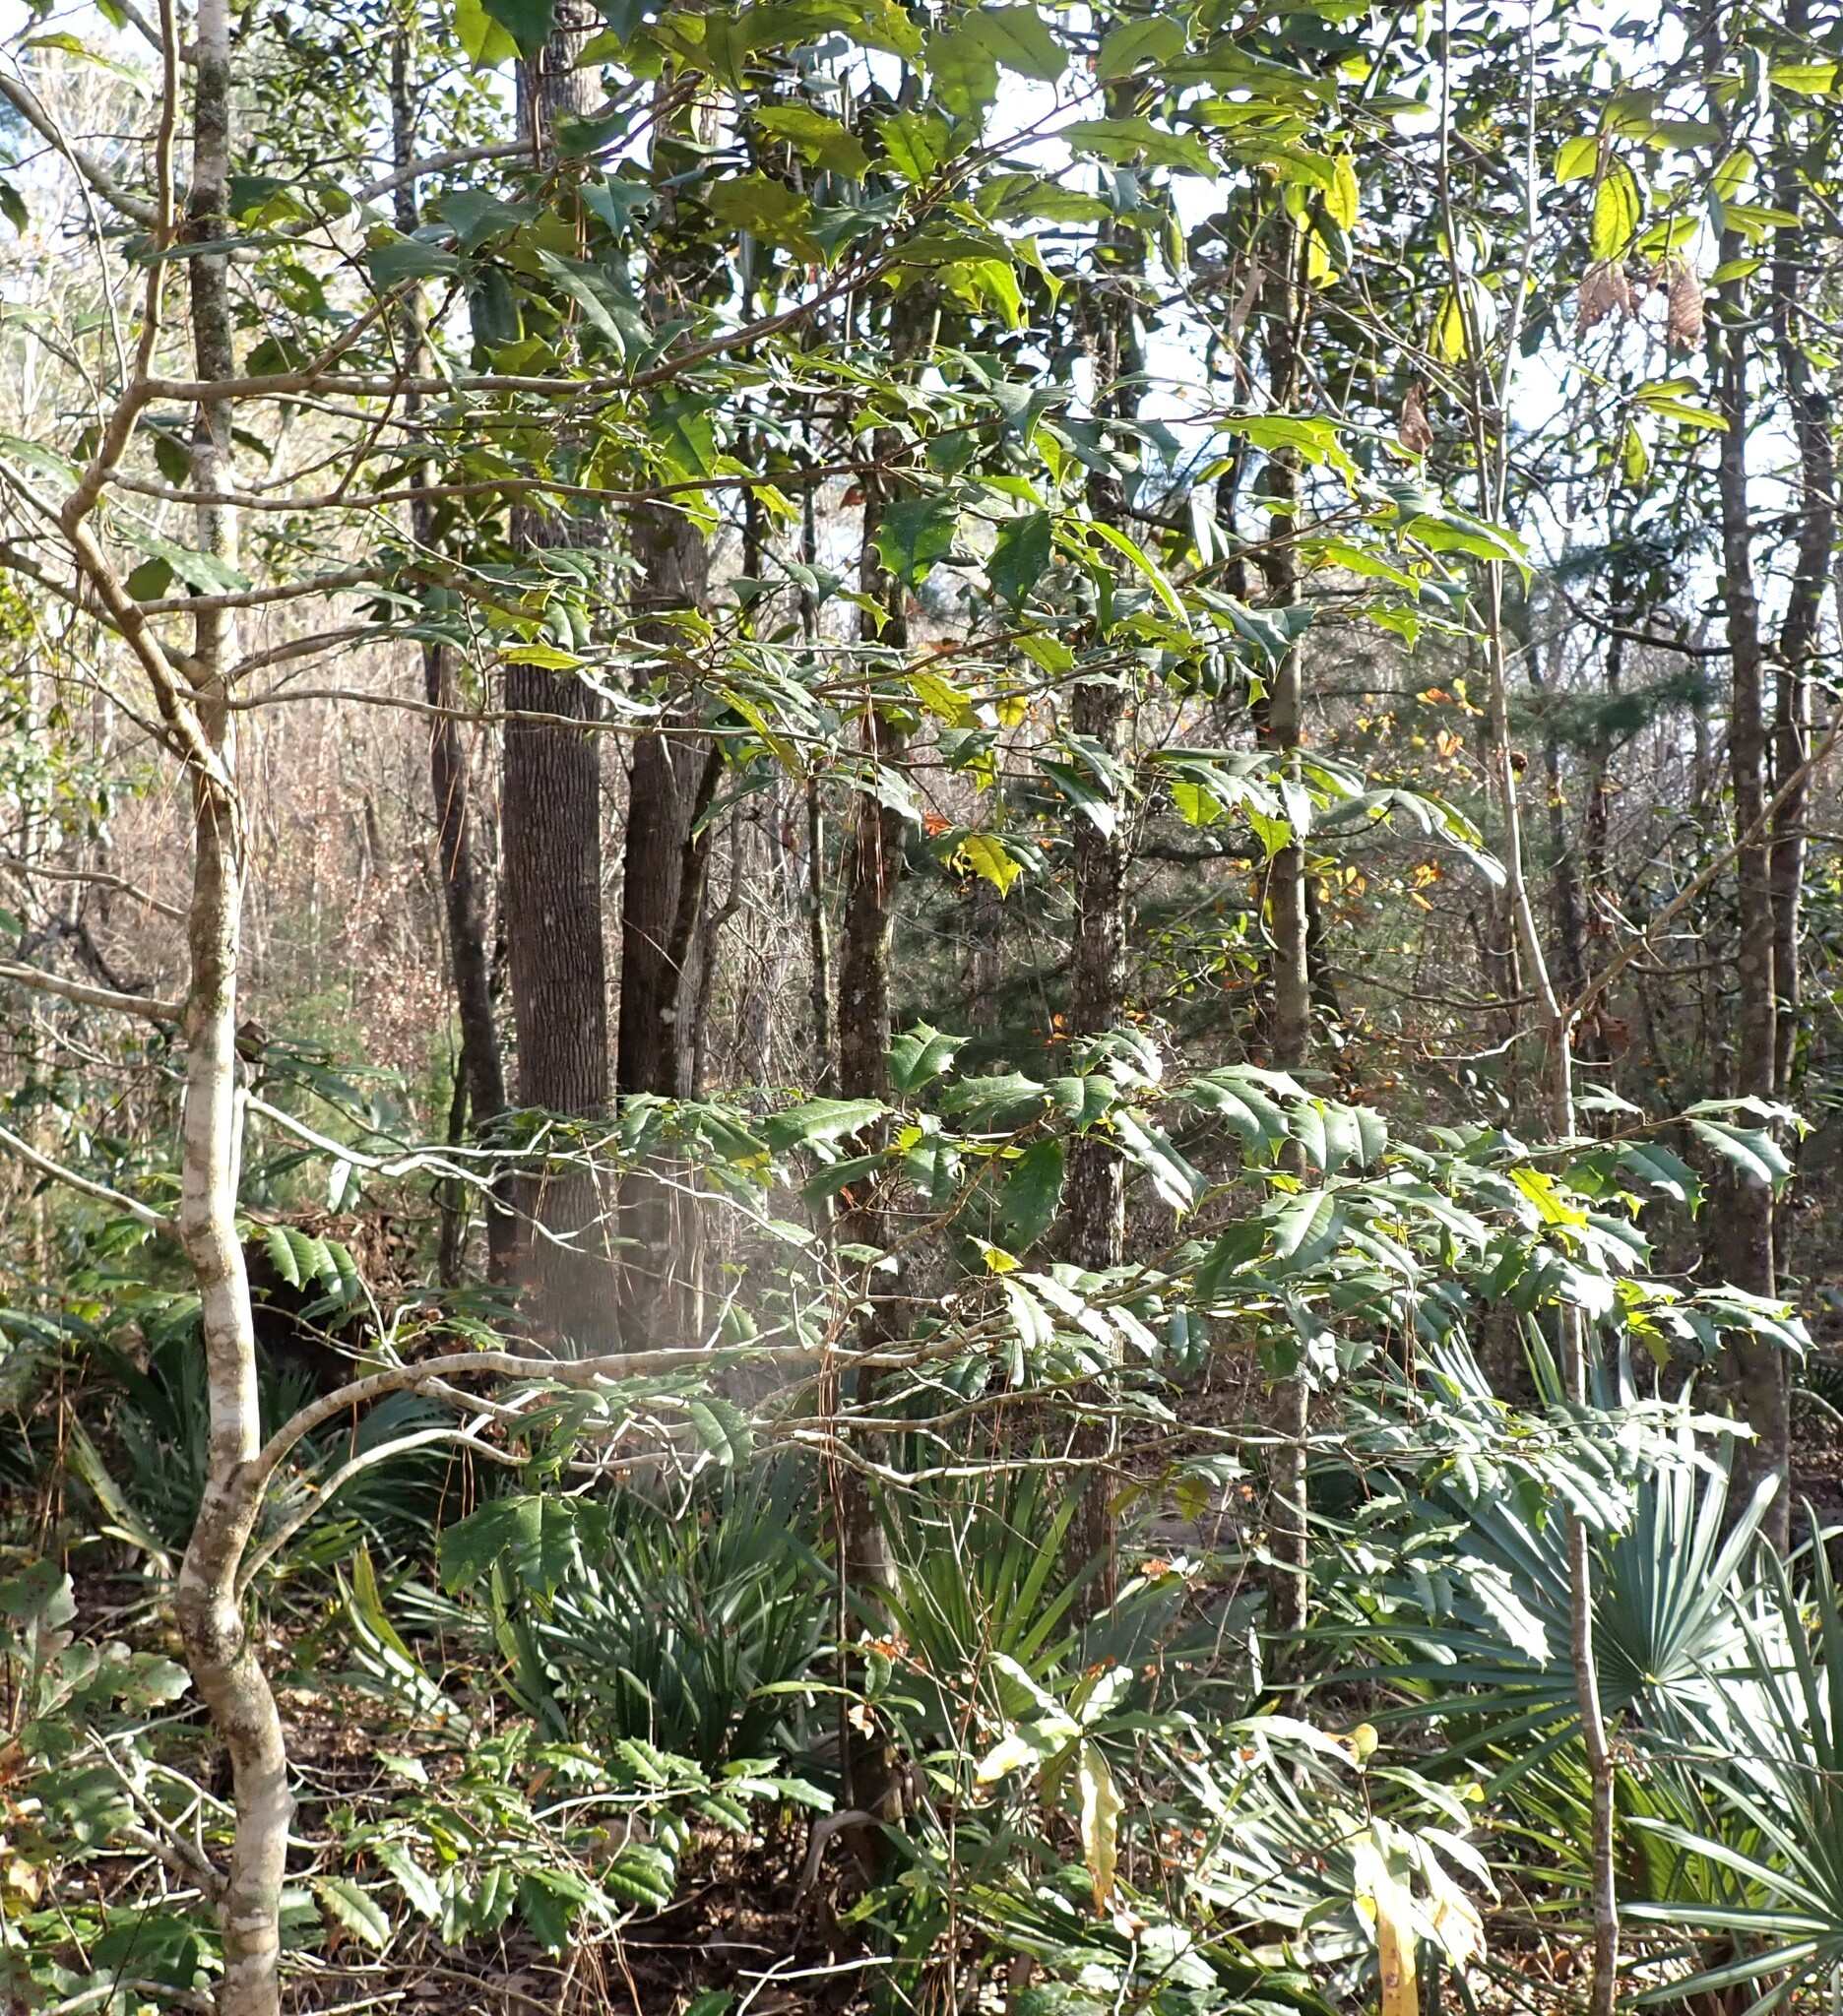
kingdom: Plantae
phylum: Tracheophyta
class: Magnoliopsida
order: Aquifoliales
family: Aquifoliaceae
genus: Ilex
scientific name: Ilex opaca
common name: American holly
